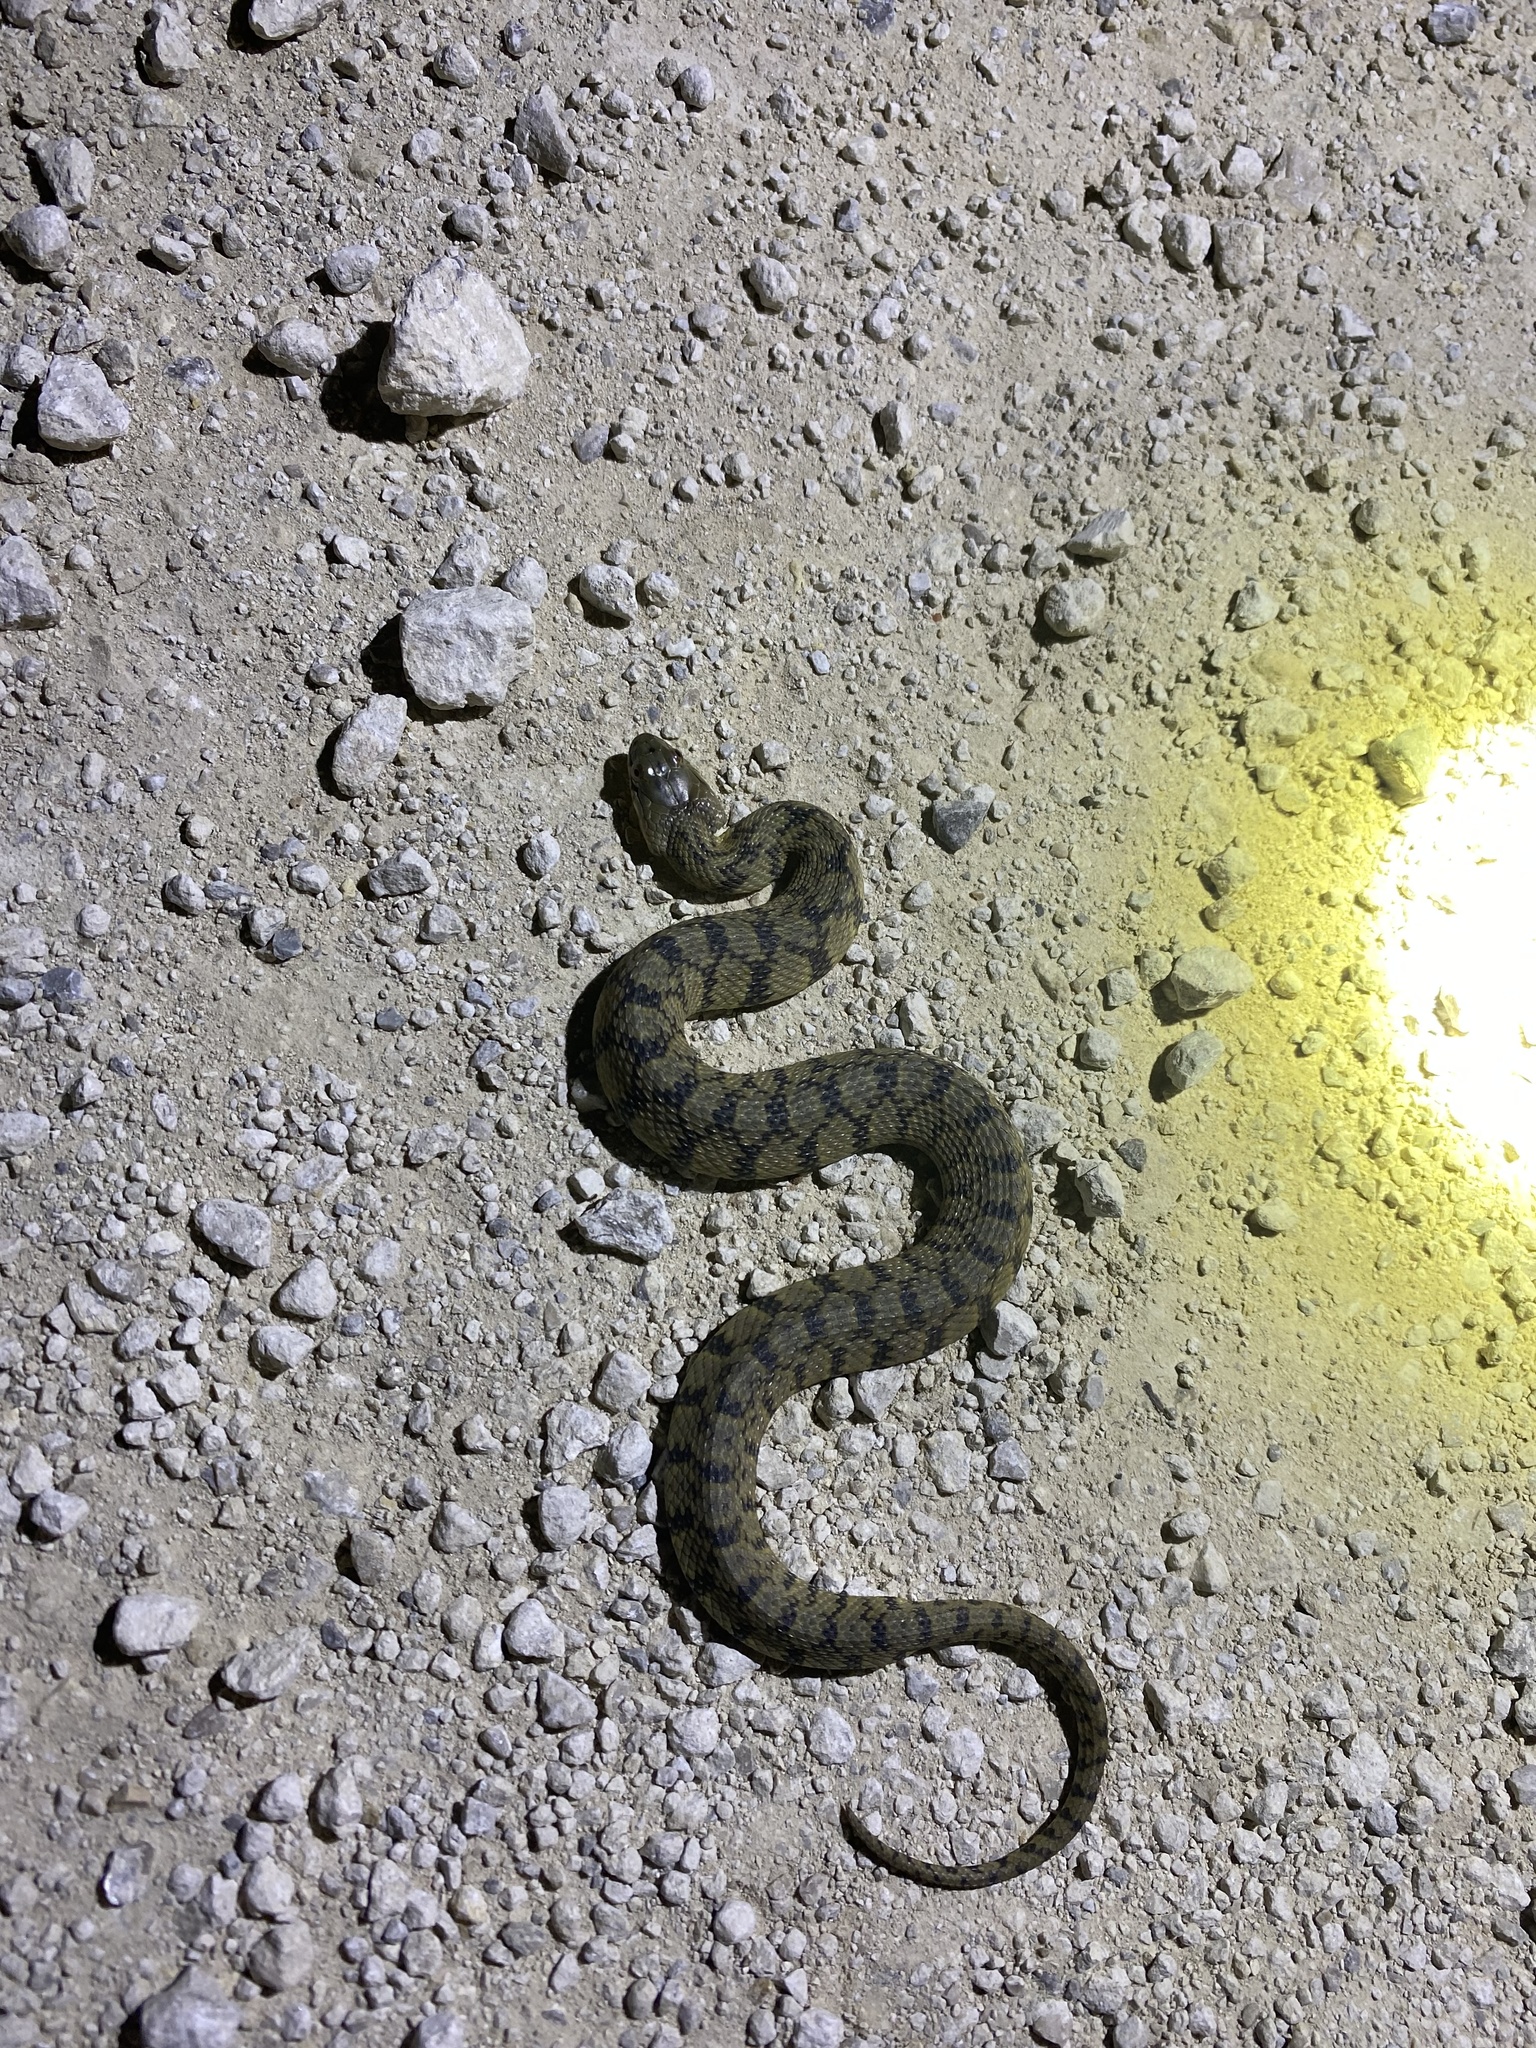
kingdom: Animalia
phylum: Chordata
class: Squamata
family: Colubridae
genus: Nerodia
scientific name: Nerodia rhombifer
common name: Diamondback water snake
